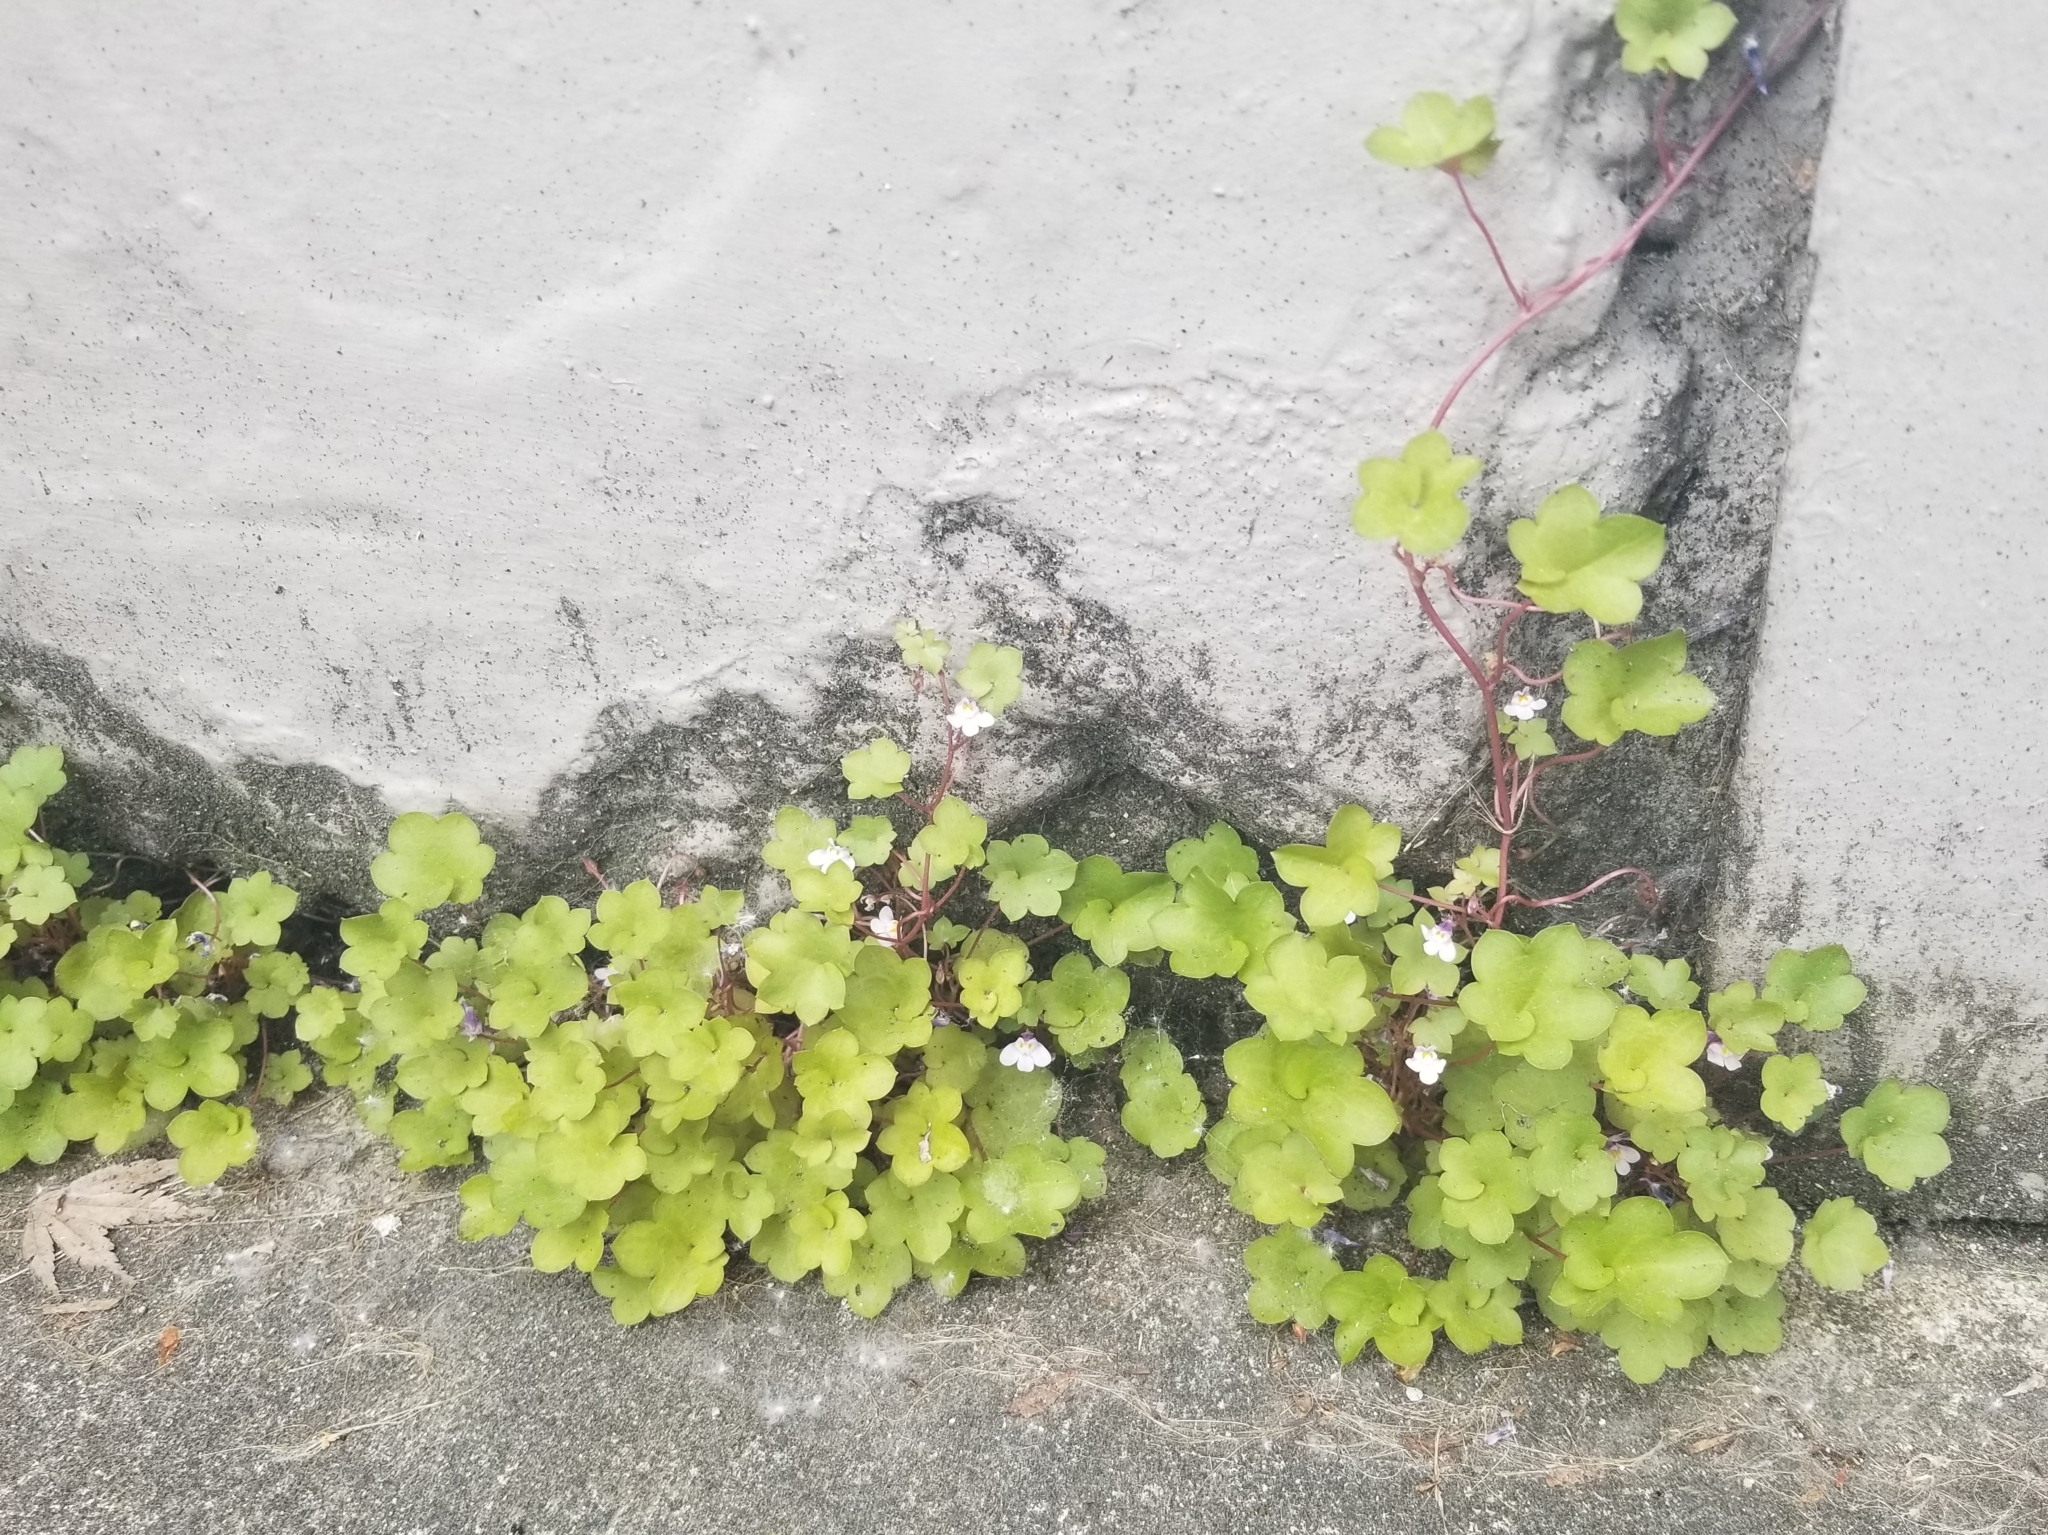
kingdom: Plantae
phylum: Tracheophyta
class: Magnoliopsida
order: Lamiales
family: Plantaginaceae
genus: Cymbalaria
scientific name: Cymbalaria muralis
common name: Ivy-leaved toadflax
